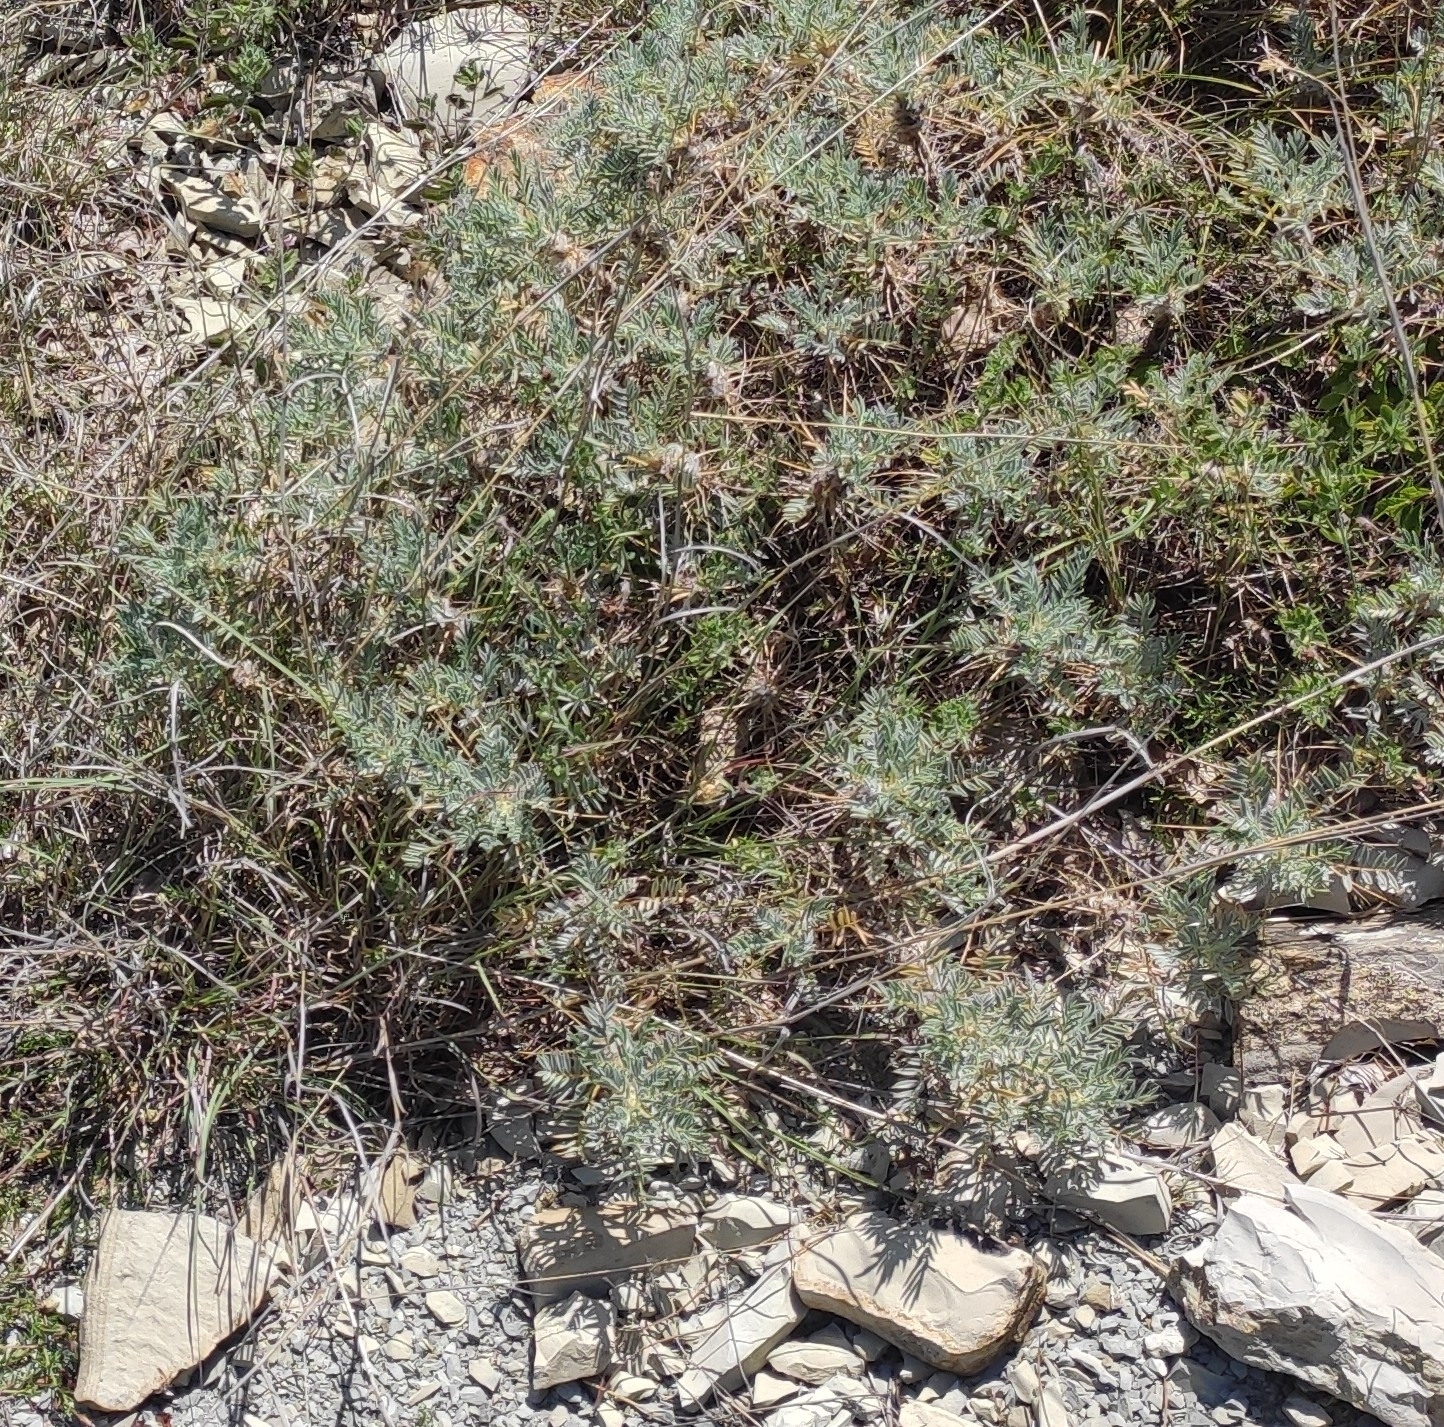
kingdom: Plantae
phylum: Tracheophyta
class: Magnoliopsida
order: Fabales
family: Fabaceae
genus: Astragalus
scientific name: Astragalus arnacanthoides
